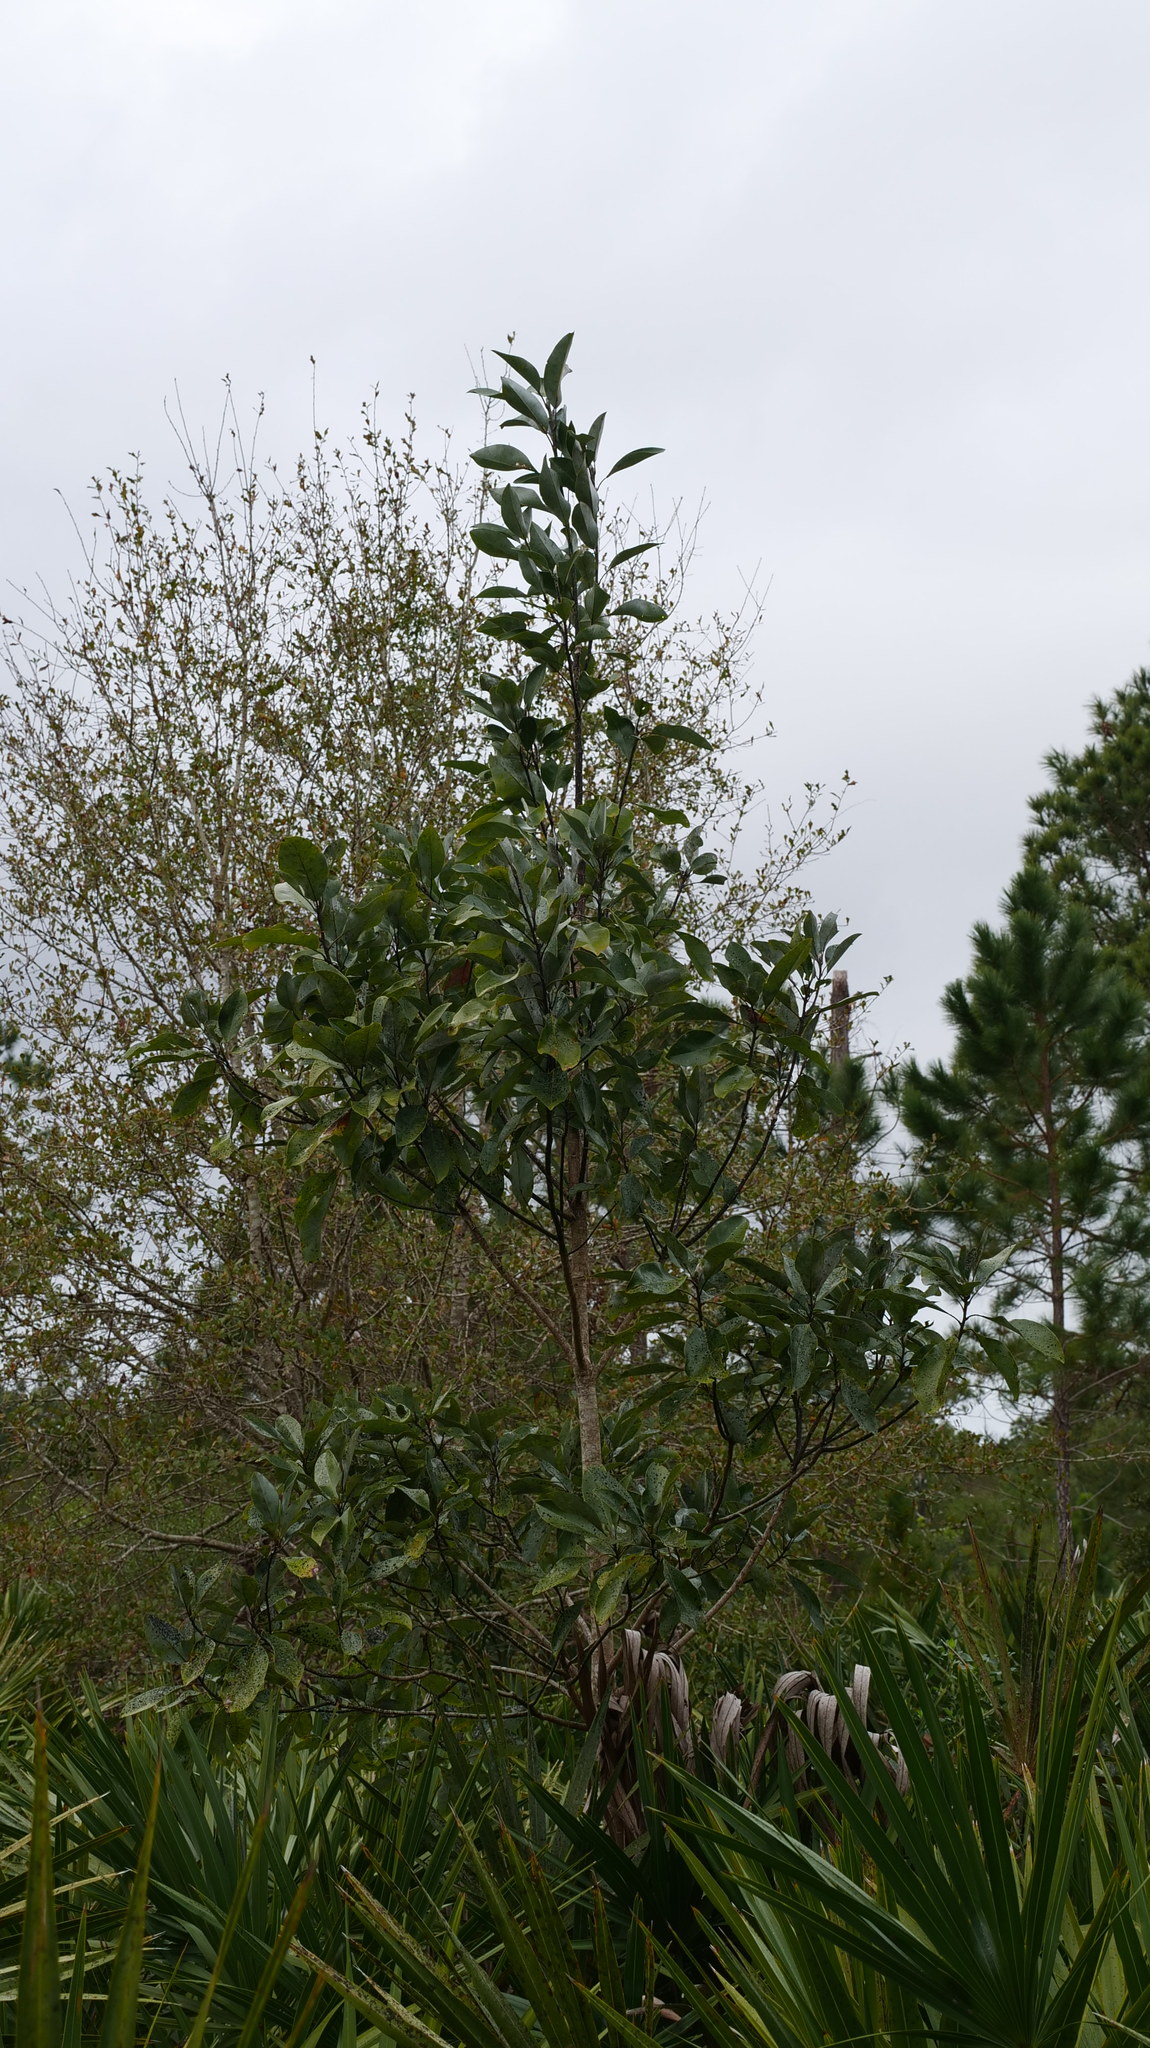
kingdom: Plantae
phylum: Tracheophyta
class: Magnoliopsida
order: Magnoliales
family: Magnoliaceae
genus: Magnolia
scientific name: Magnolia virginiana
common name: Swamp bay
